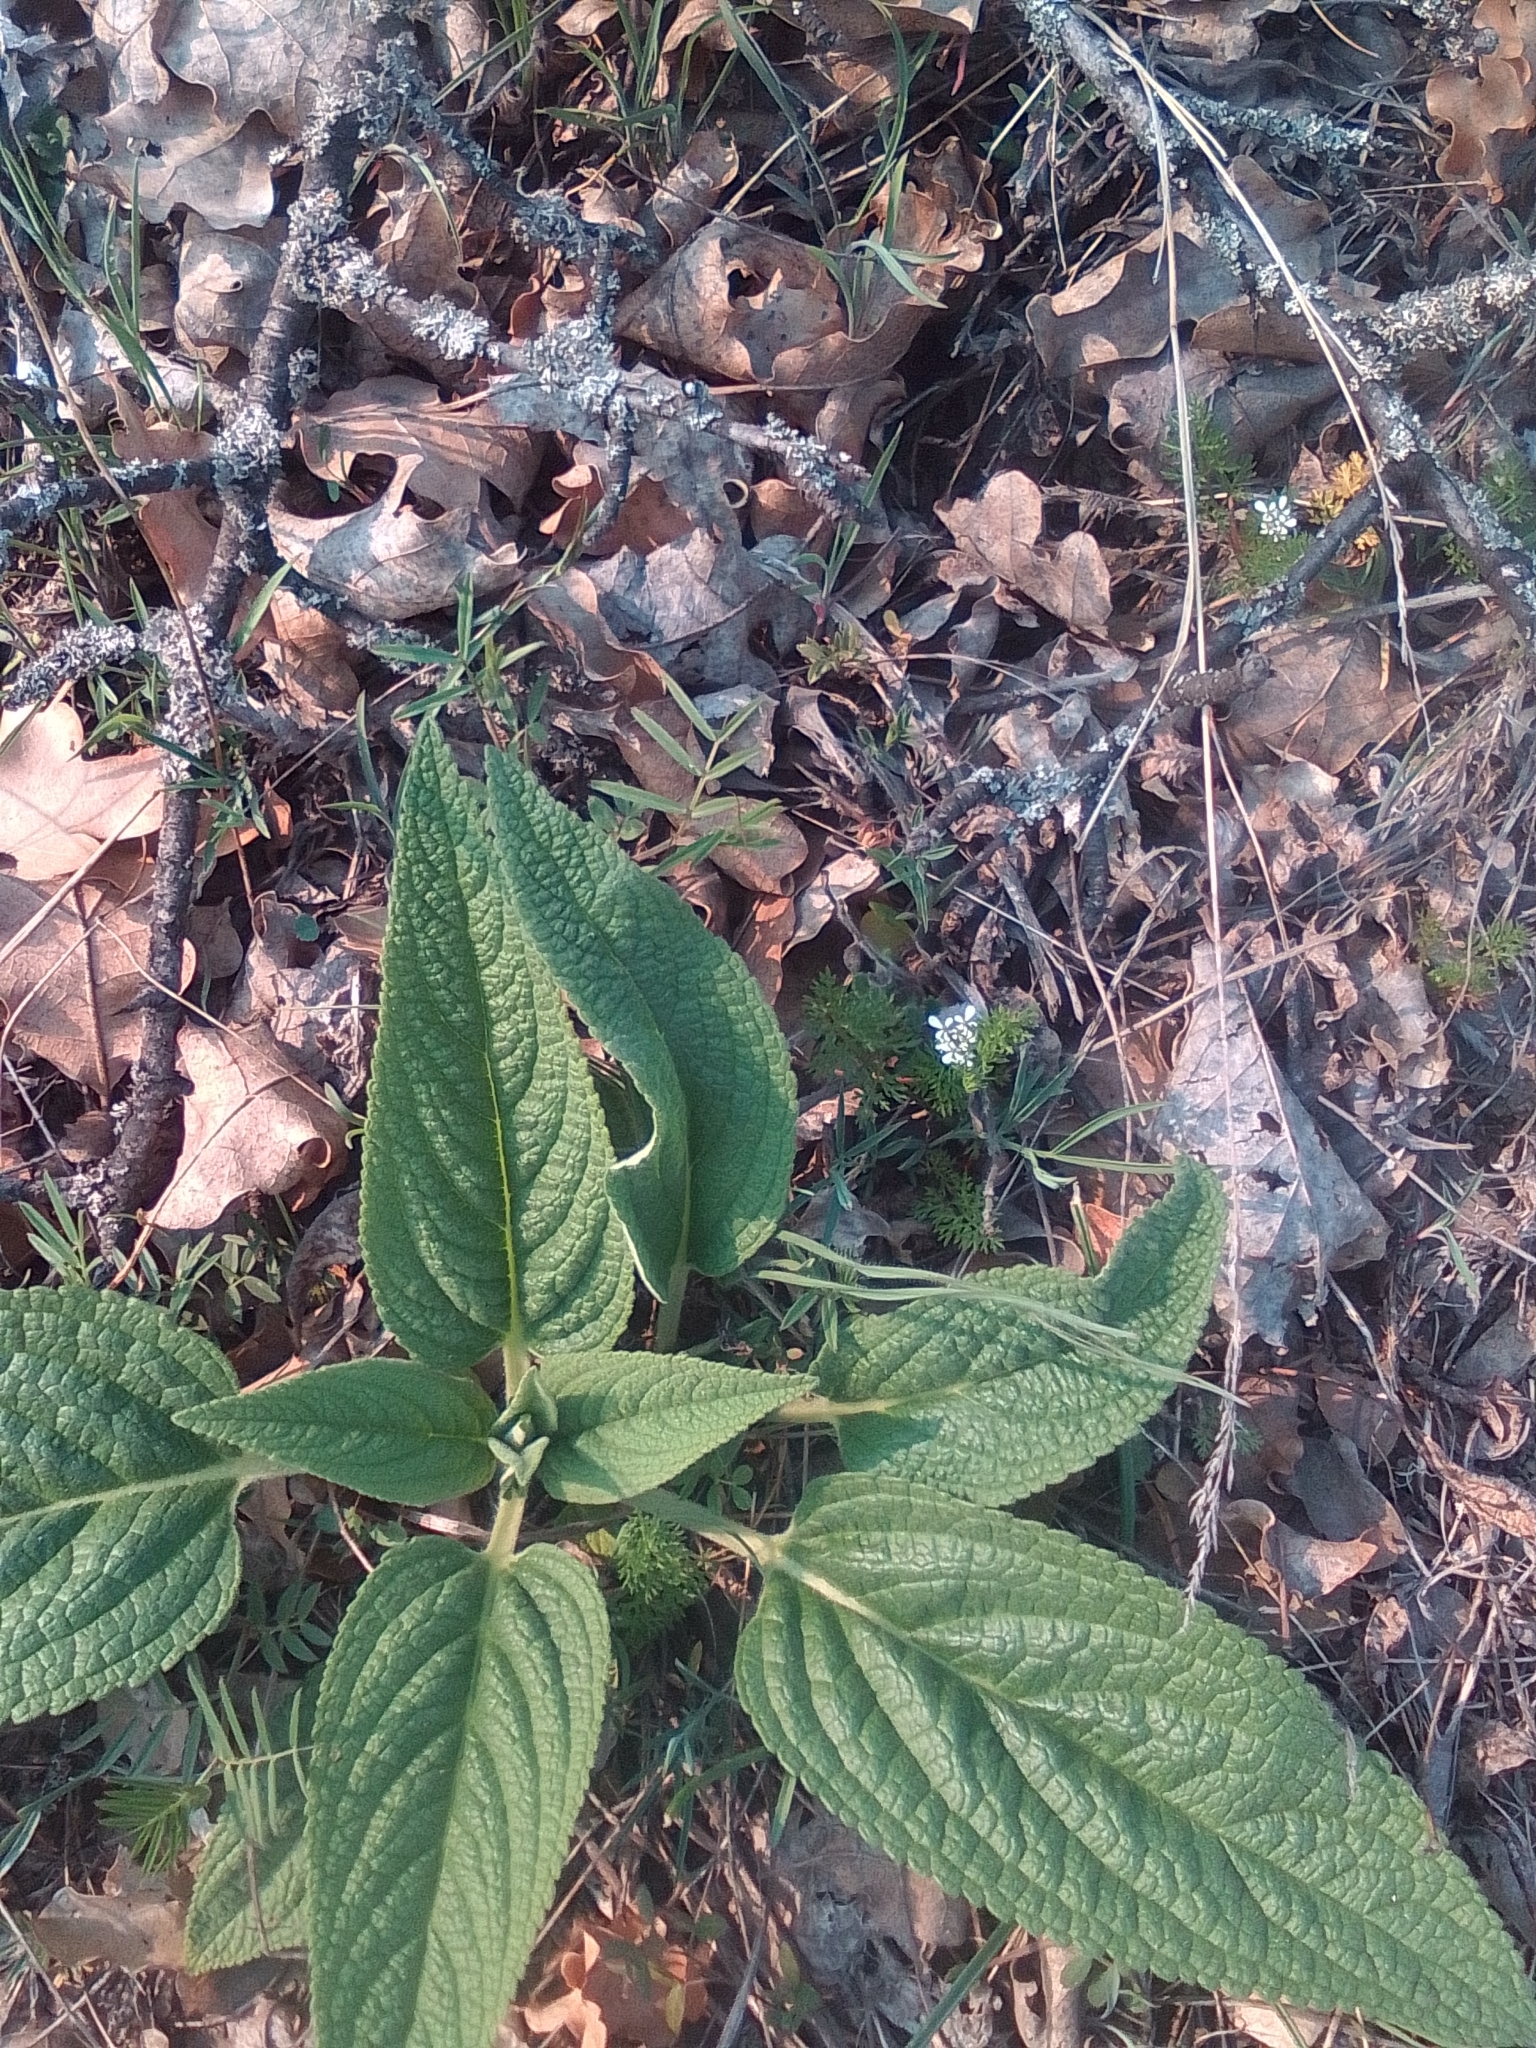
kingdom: Plantae
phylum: Tracheophyta
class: Magnoliopsida
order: Lamiales
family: Lamiaceae
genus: Phlomis
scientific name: Phlomis herba-venti
